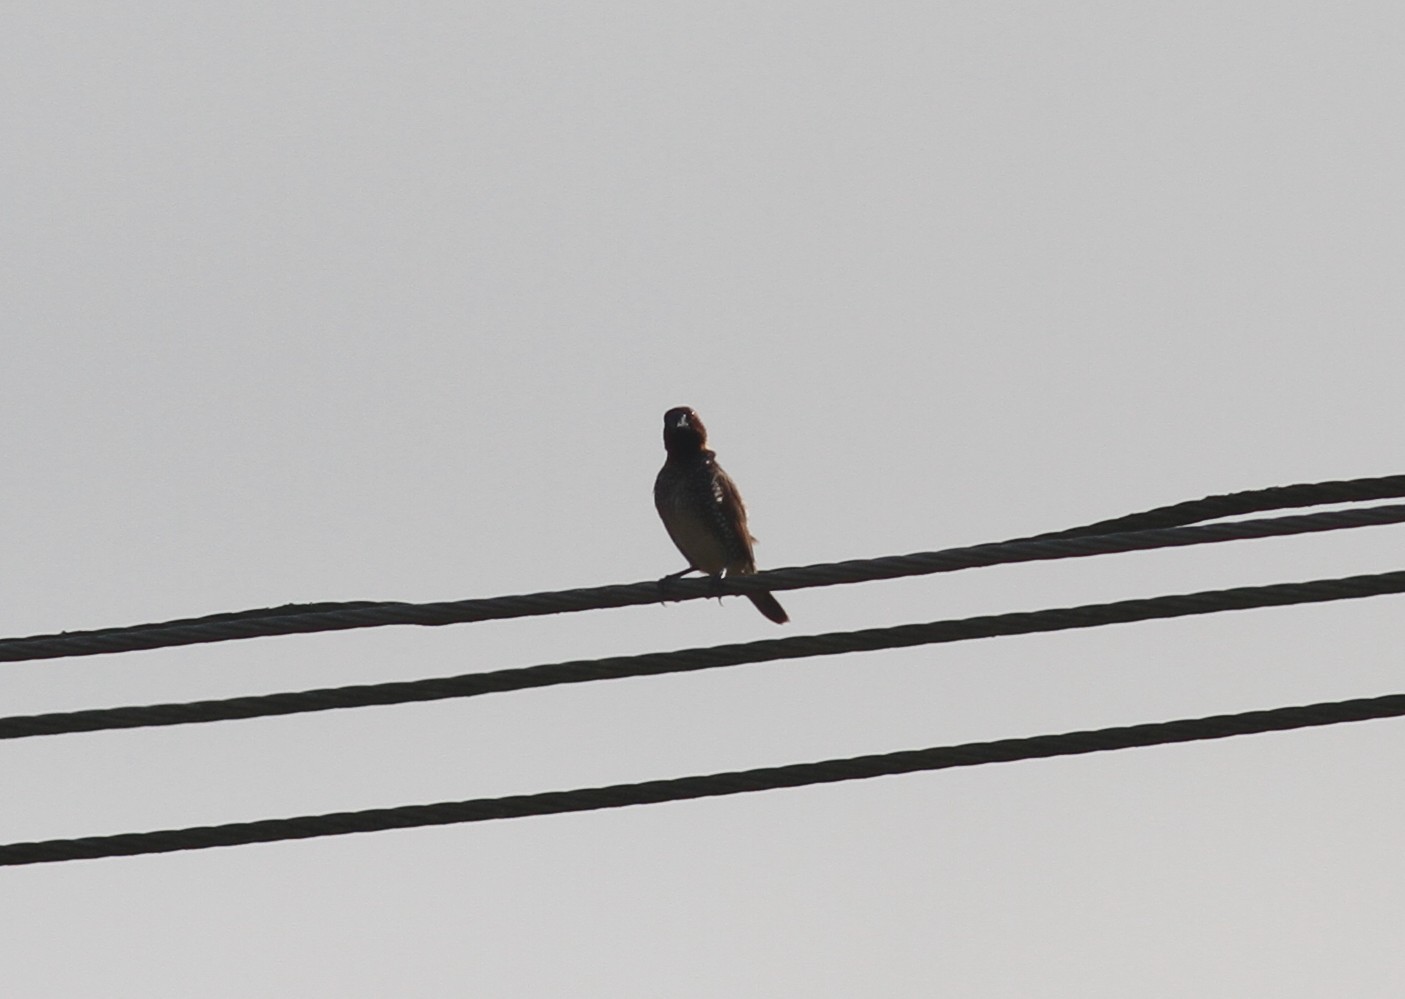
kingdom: Animalia
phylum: Chordata
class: Aves
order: Passeriformes
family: Estrildidae
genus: Lonchura
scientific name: Lonchura punctulata
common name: Scaly-breasted munia
